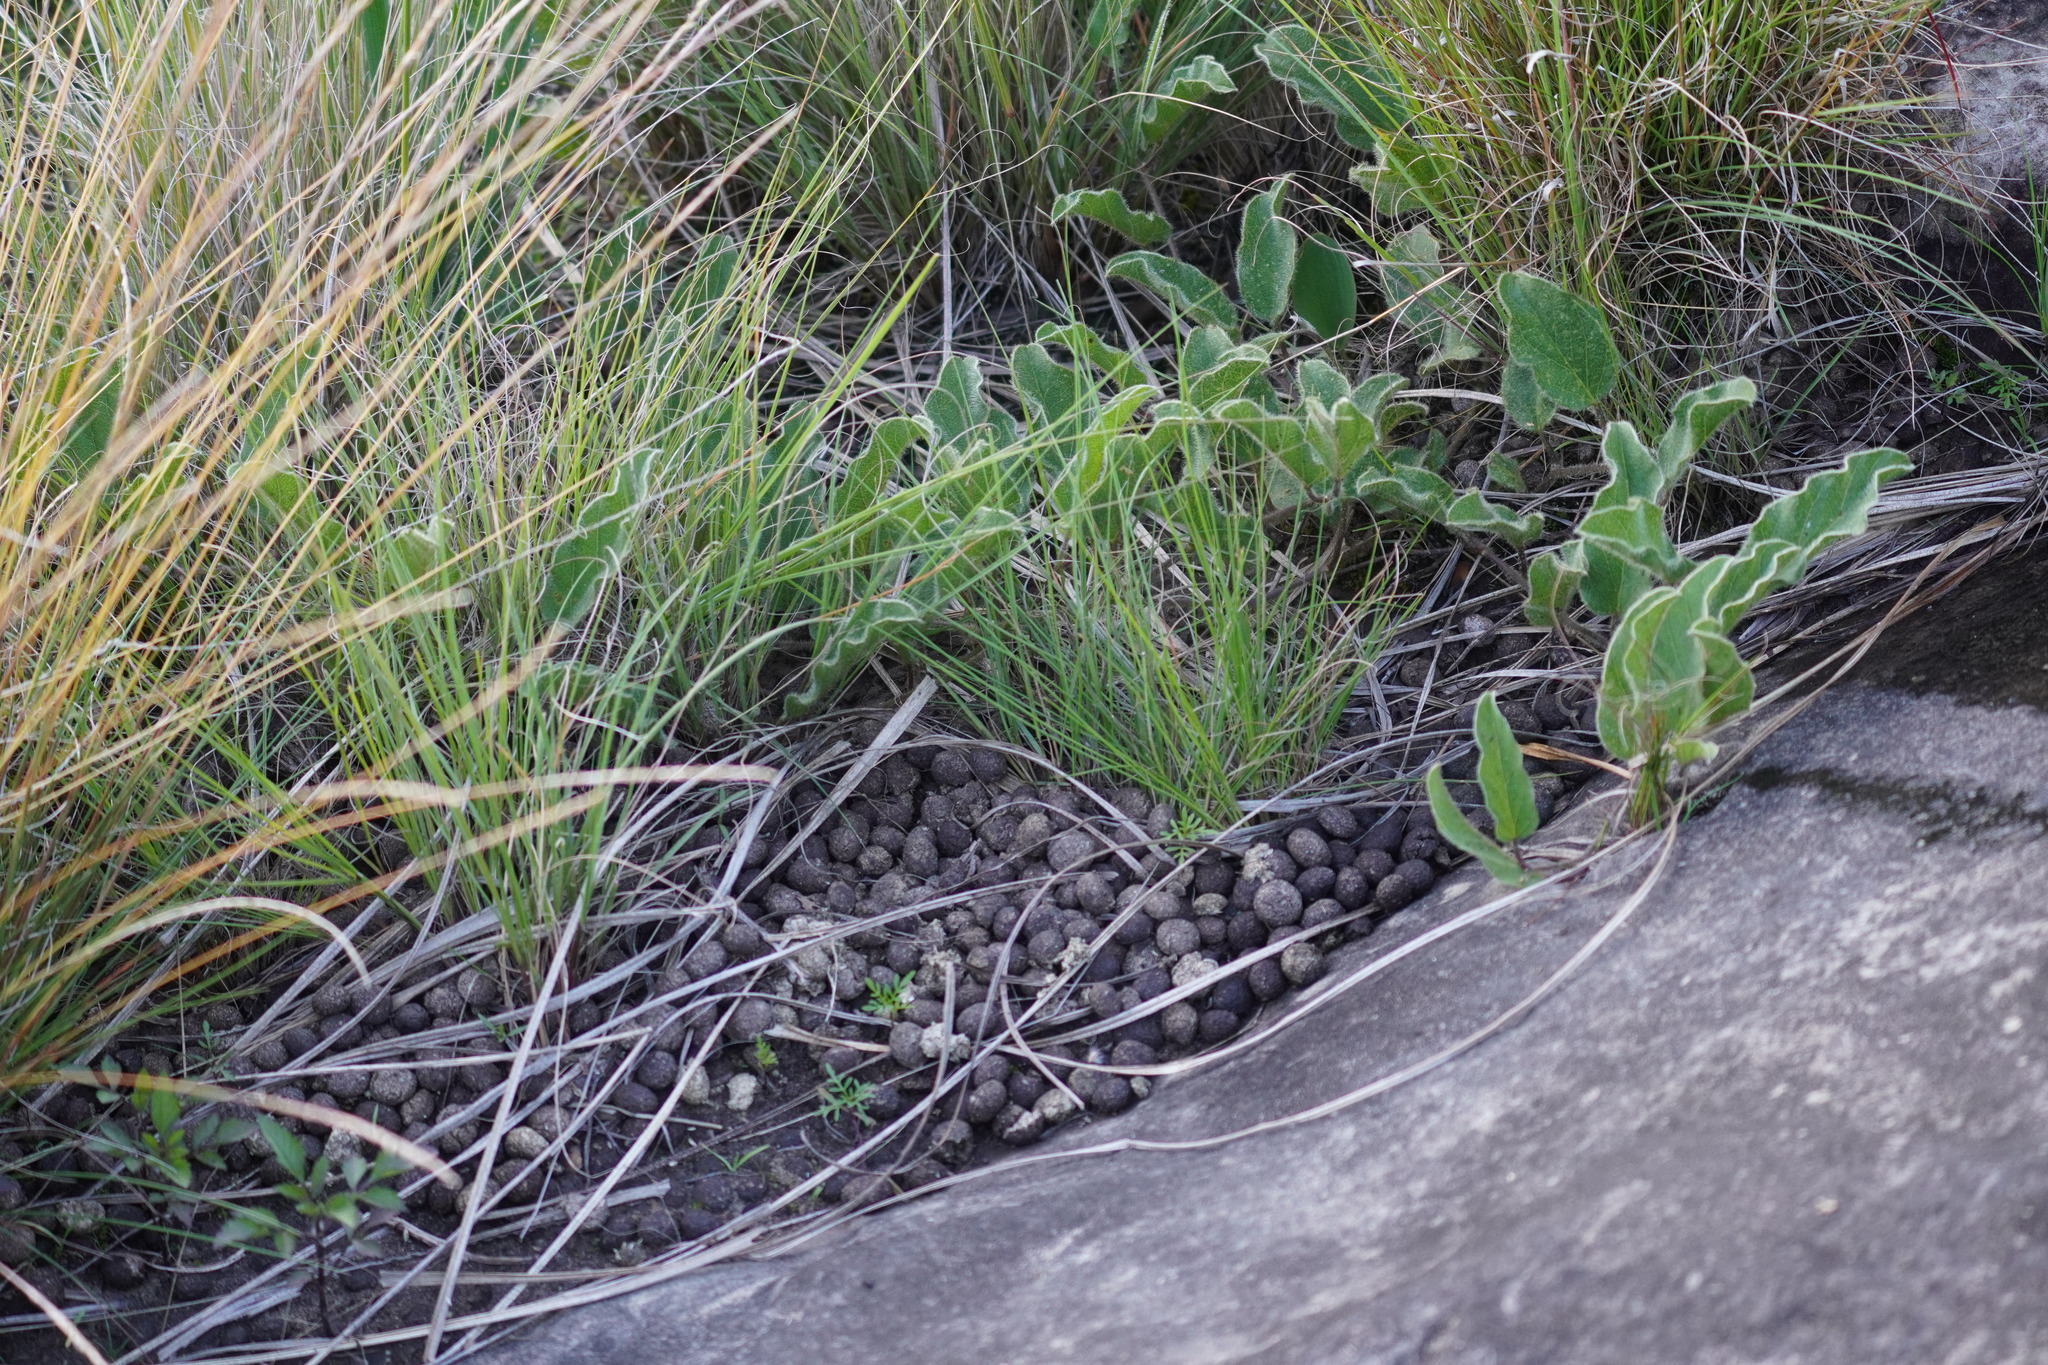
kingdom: Animalia
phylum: Chordata
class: Mammalia
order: Lagomorpha
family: Leporidae
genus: Pronolagus
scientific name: Pronolagus saundersiae
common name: Hewitt's red rock hare
